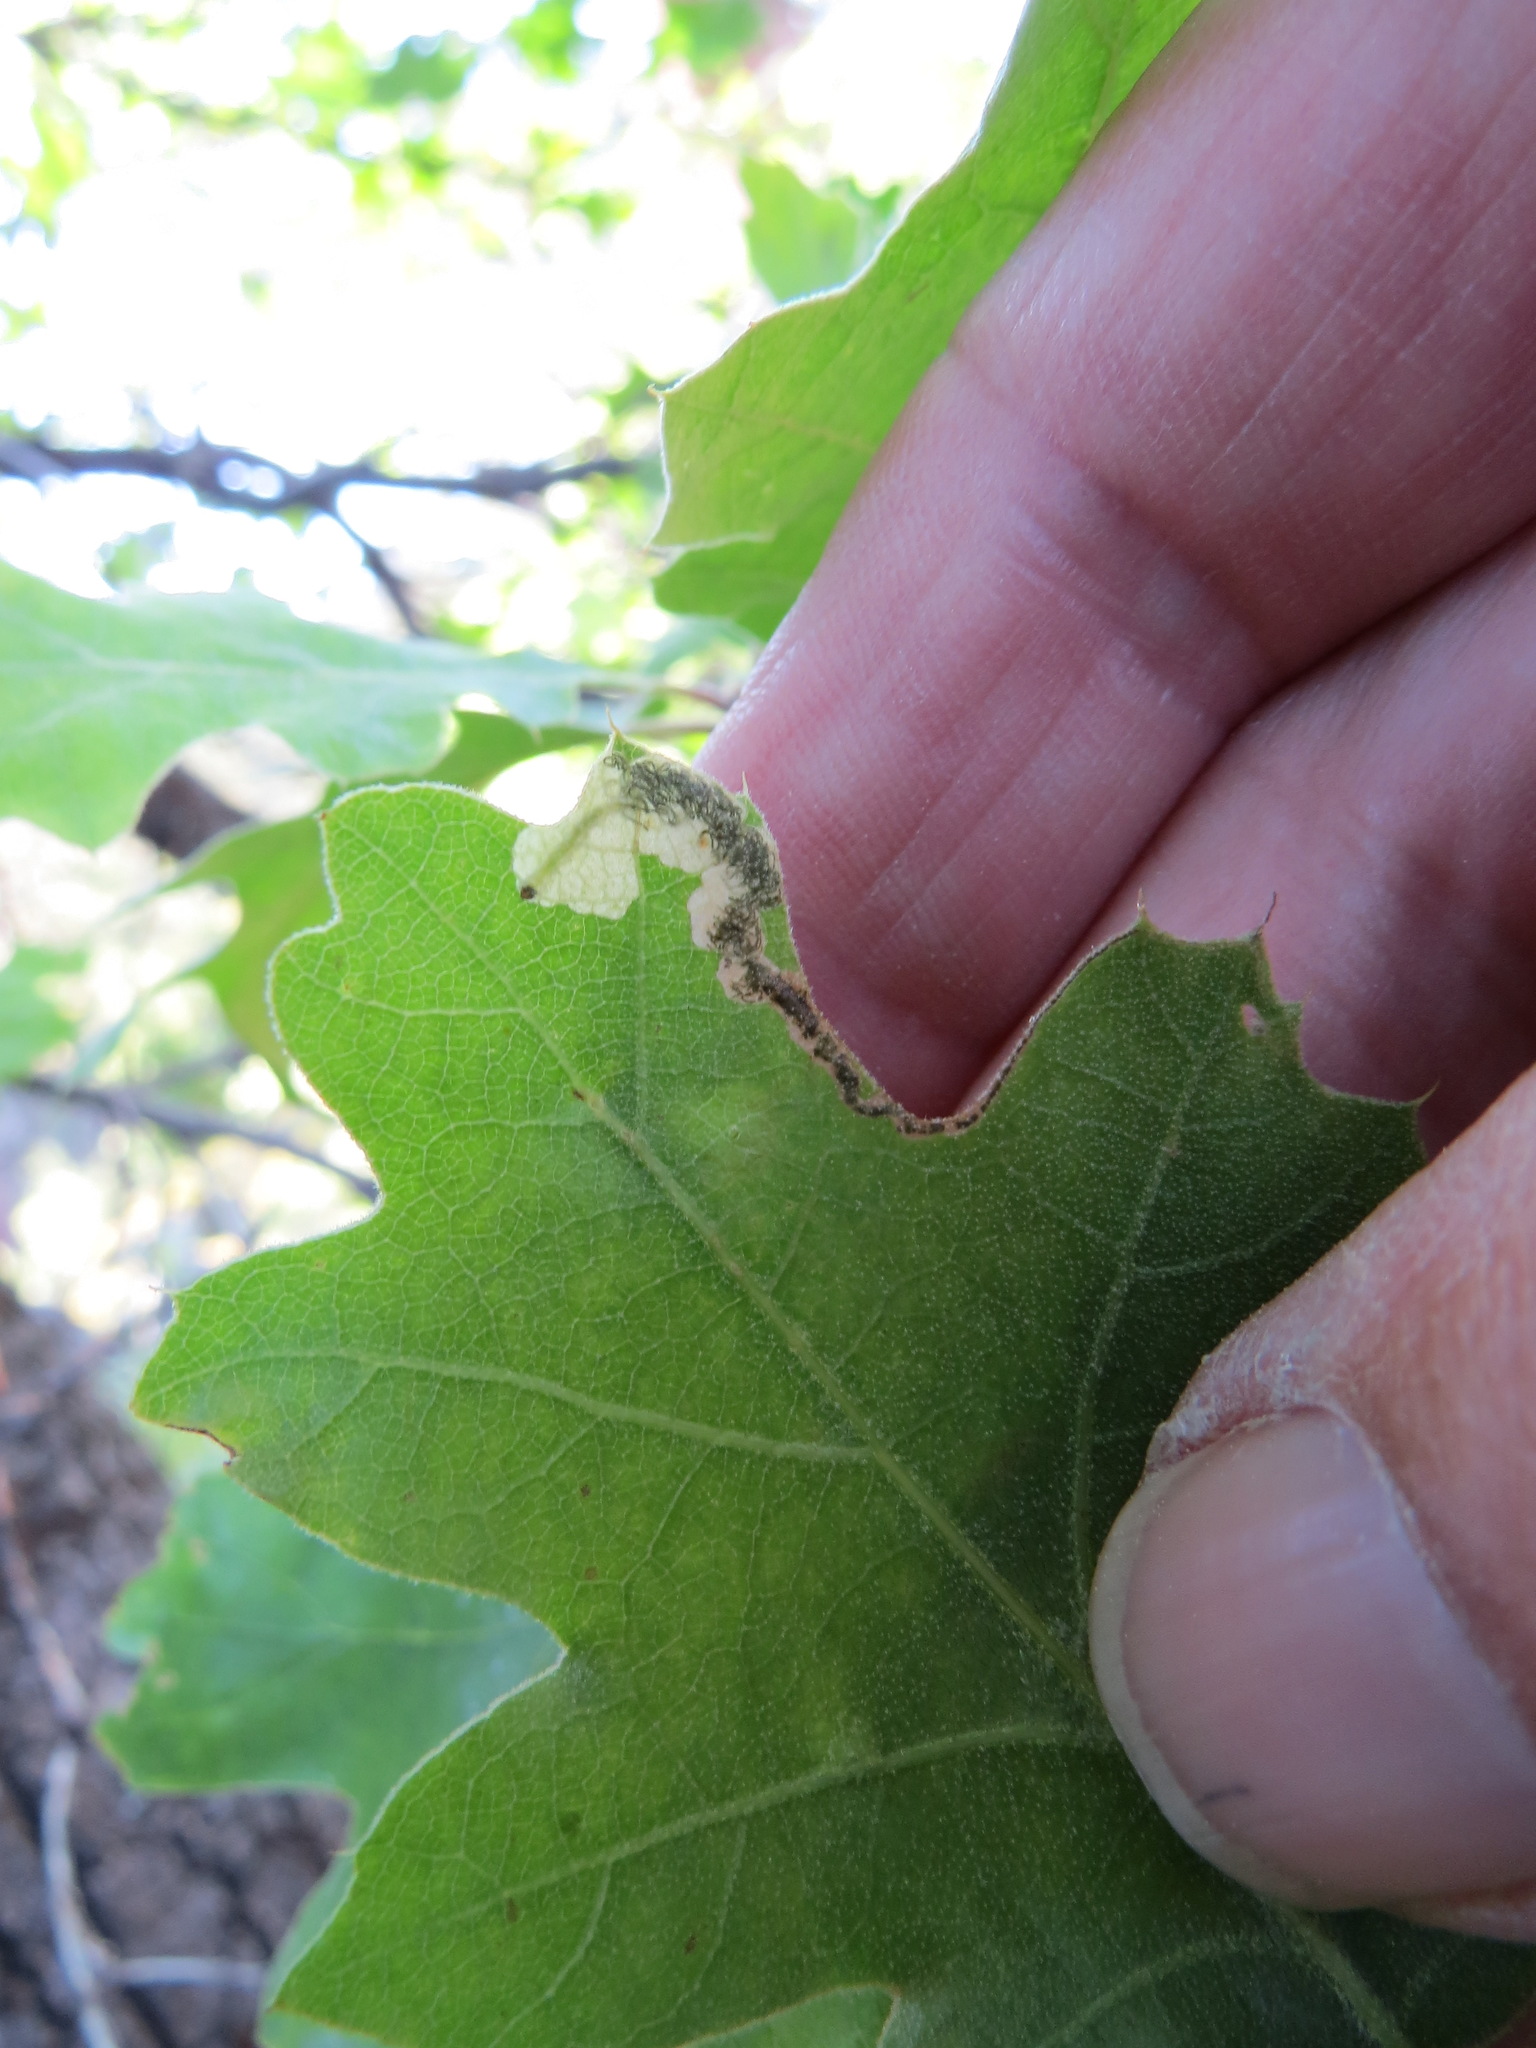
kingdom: Animalia
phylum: Arthropoda
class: Insecta
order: Lepidoptera
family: Eriocraniidae
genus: Eriocraniella
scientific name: Eriocraniella aurosparsella
